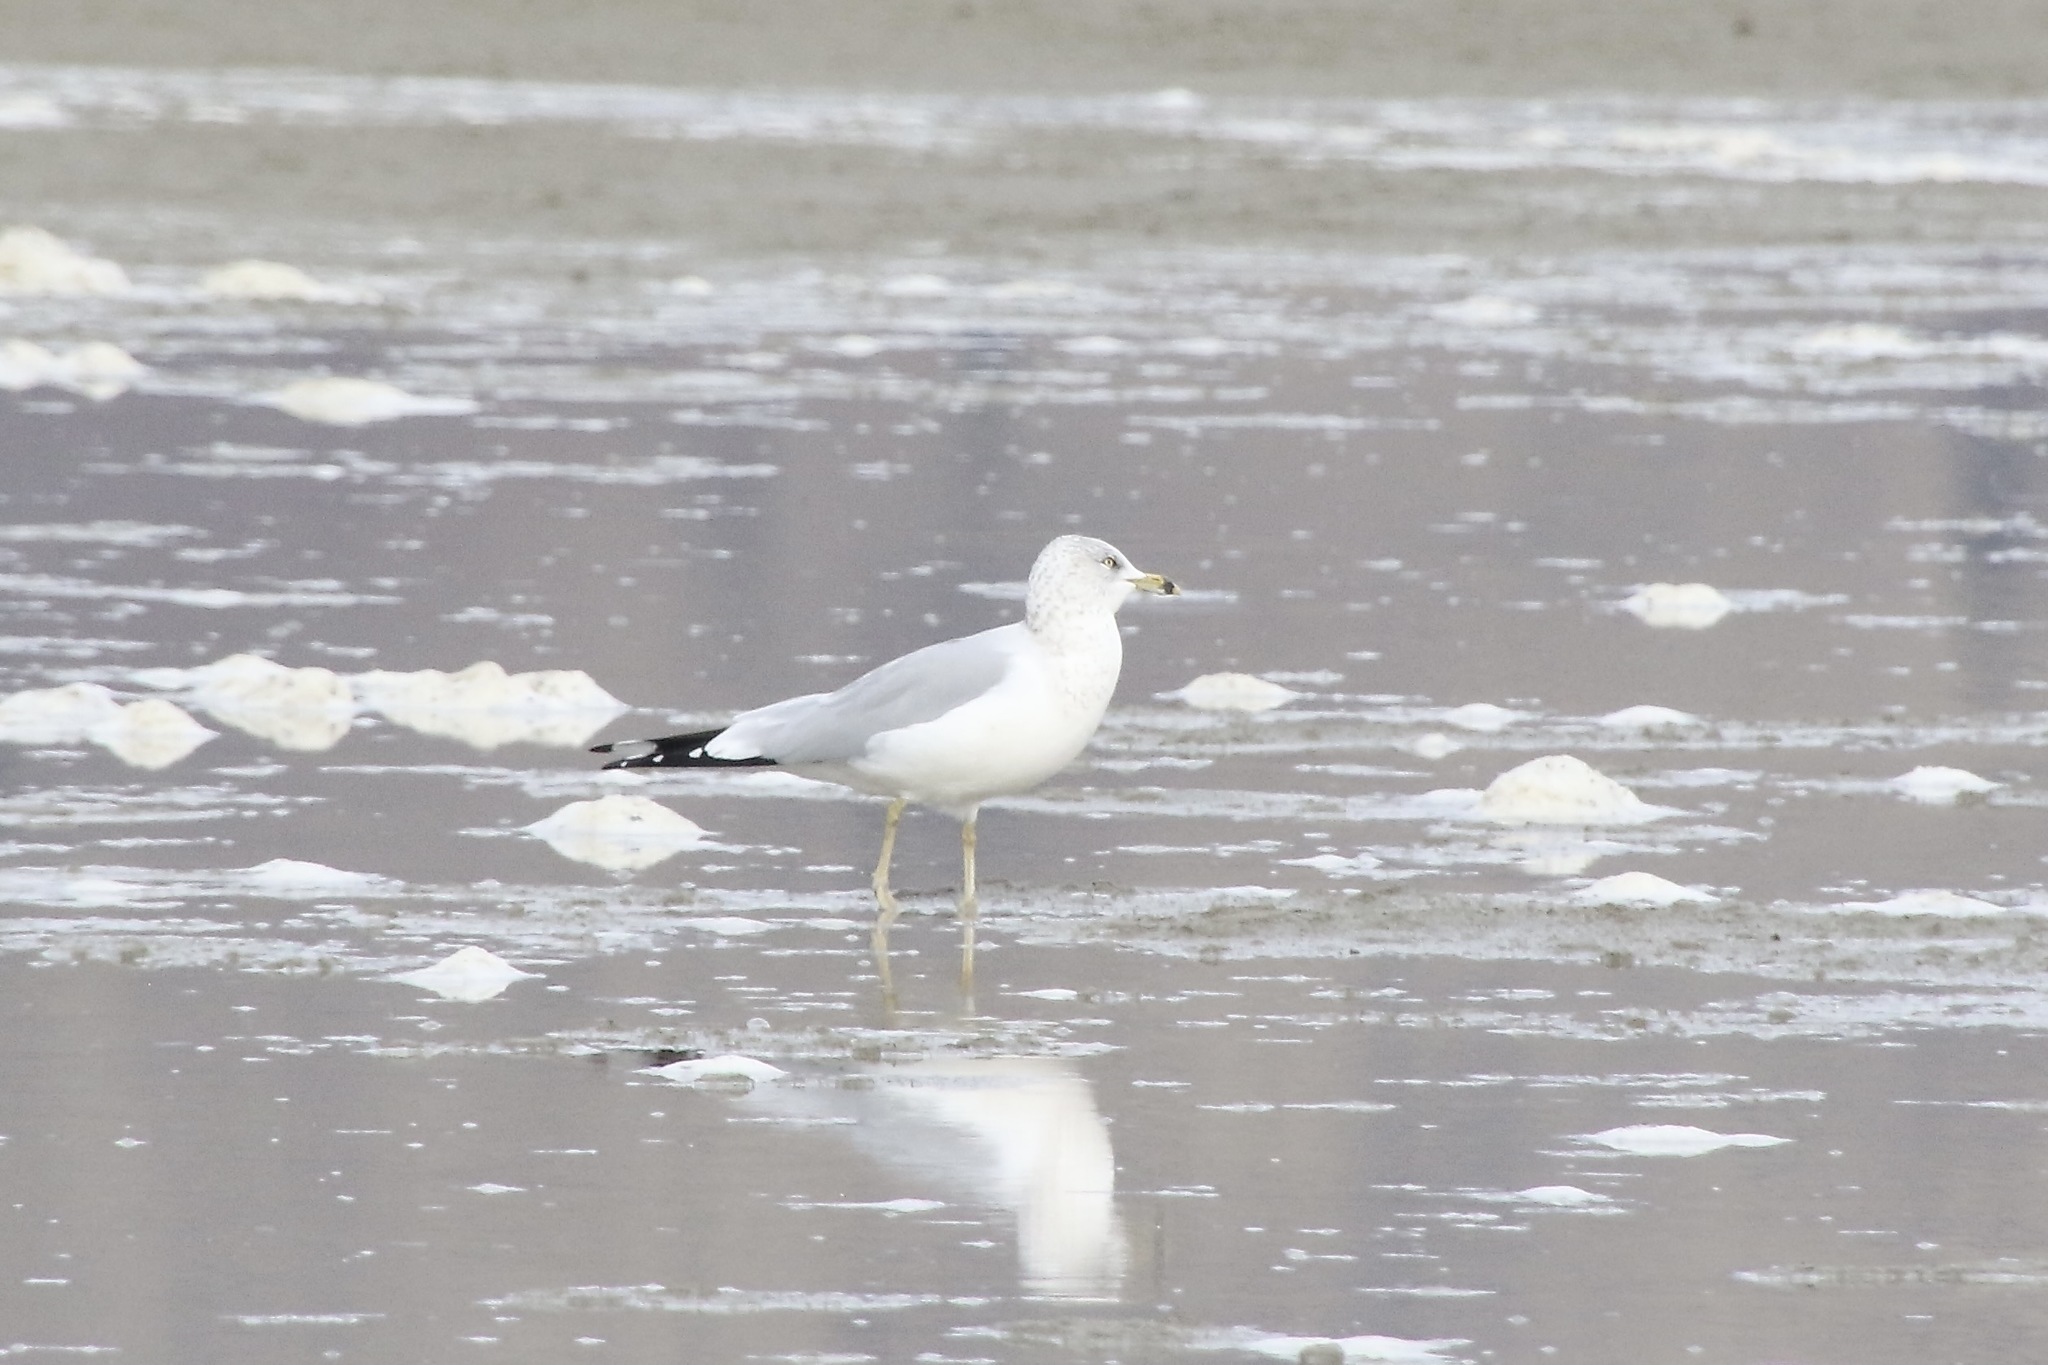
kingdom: Animalia
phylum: Chordata
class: Aves
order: Charadriiformes
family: Laridae
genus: Larus
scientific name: Larus delawarensis
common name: Ring-billed gull
